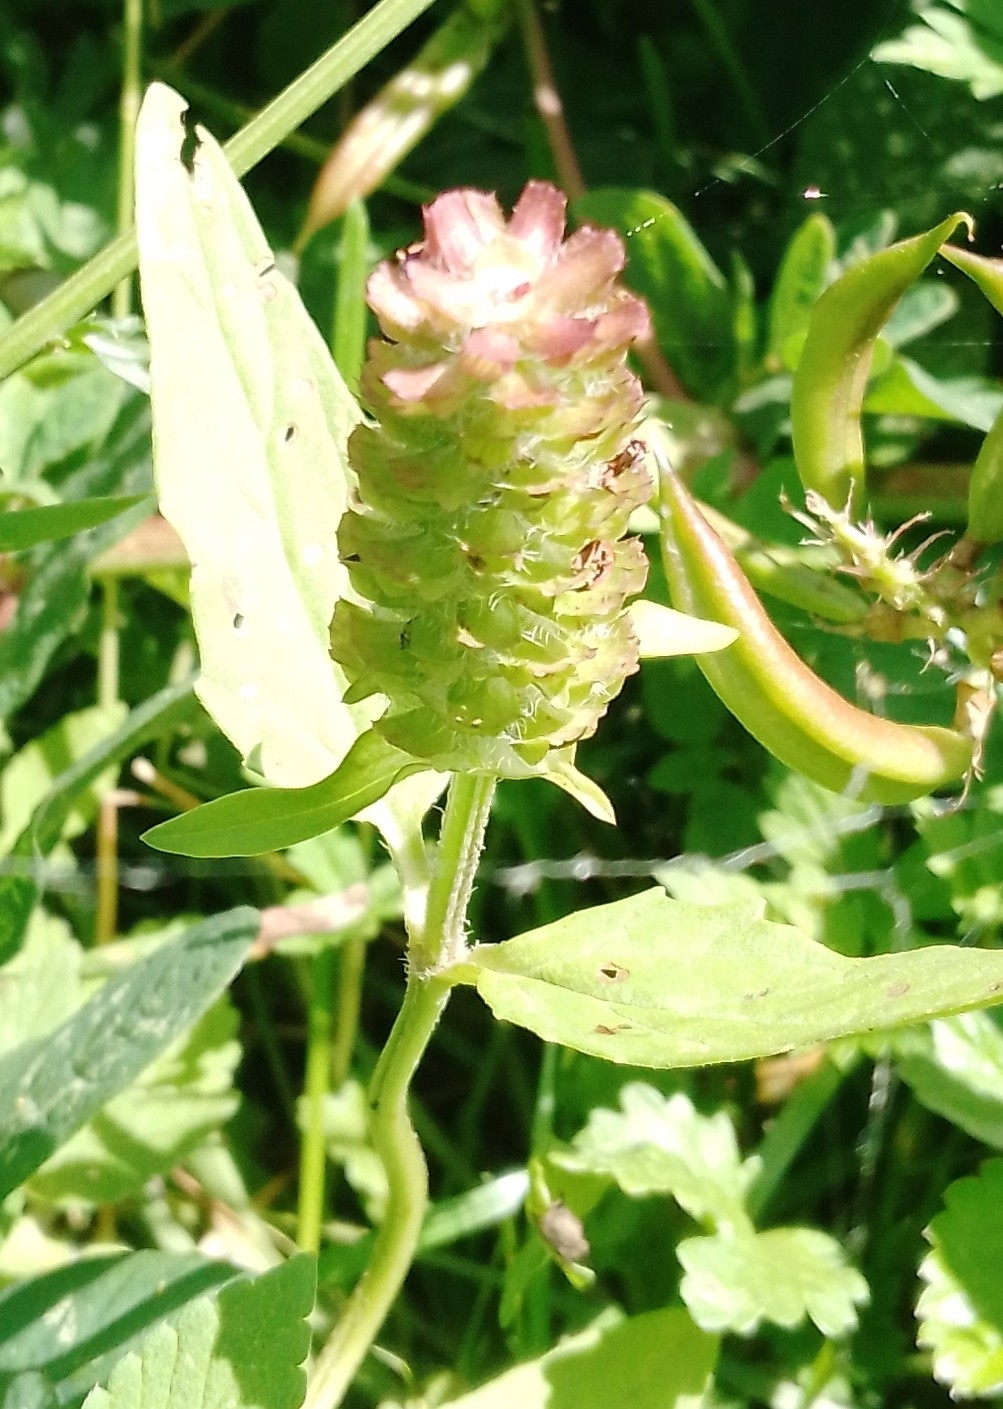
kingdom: Plantae
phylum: Tracheophyta
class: Magnoliopsida
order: Lamiales
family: Lamiaceae
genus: Prunella
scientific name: Prunella vulgaris
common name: Heal-all
